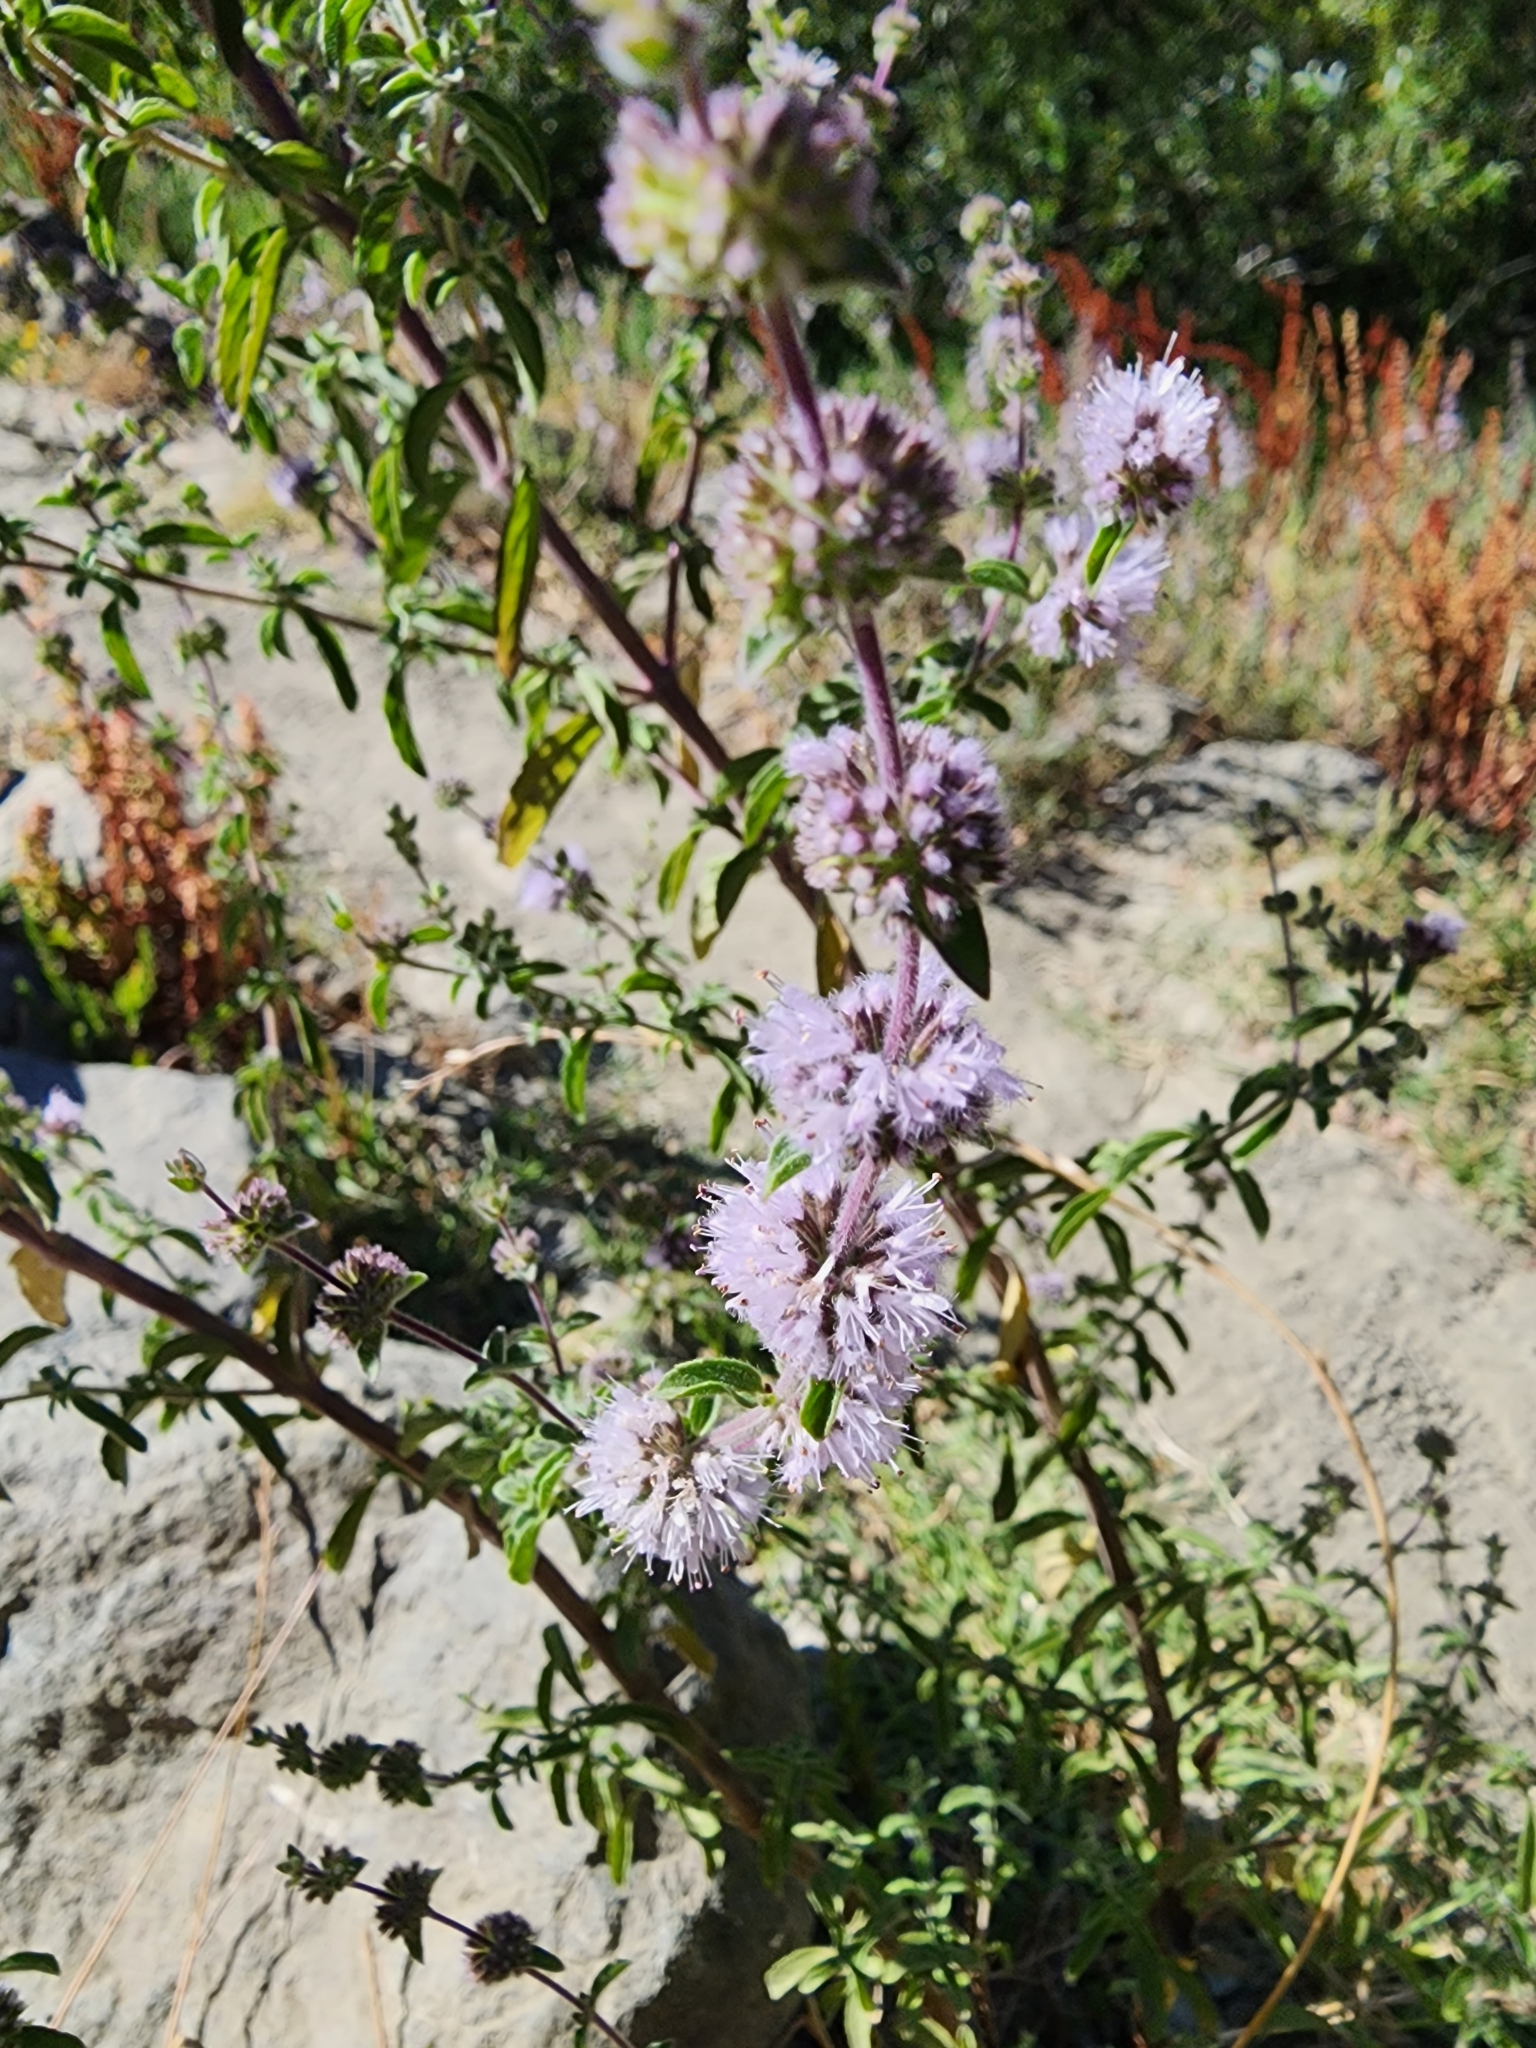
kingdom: Plantae
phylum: Tracheophyta
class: Magnoliopsida
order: Lamiales
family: Lamiaceae
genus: Mentha
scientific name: Mentha pulegium
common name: Pennyroyal
